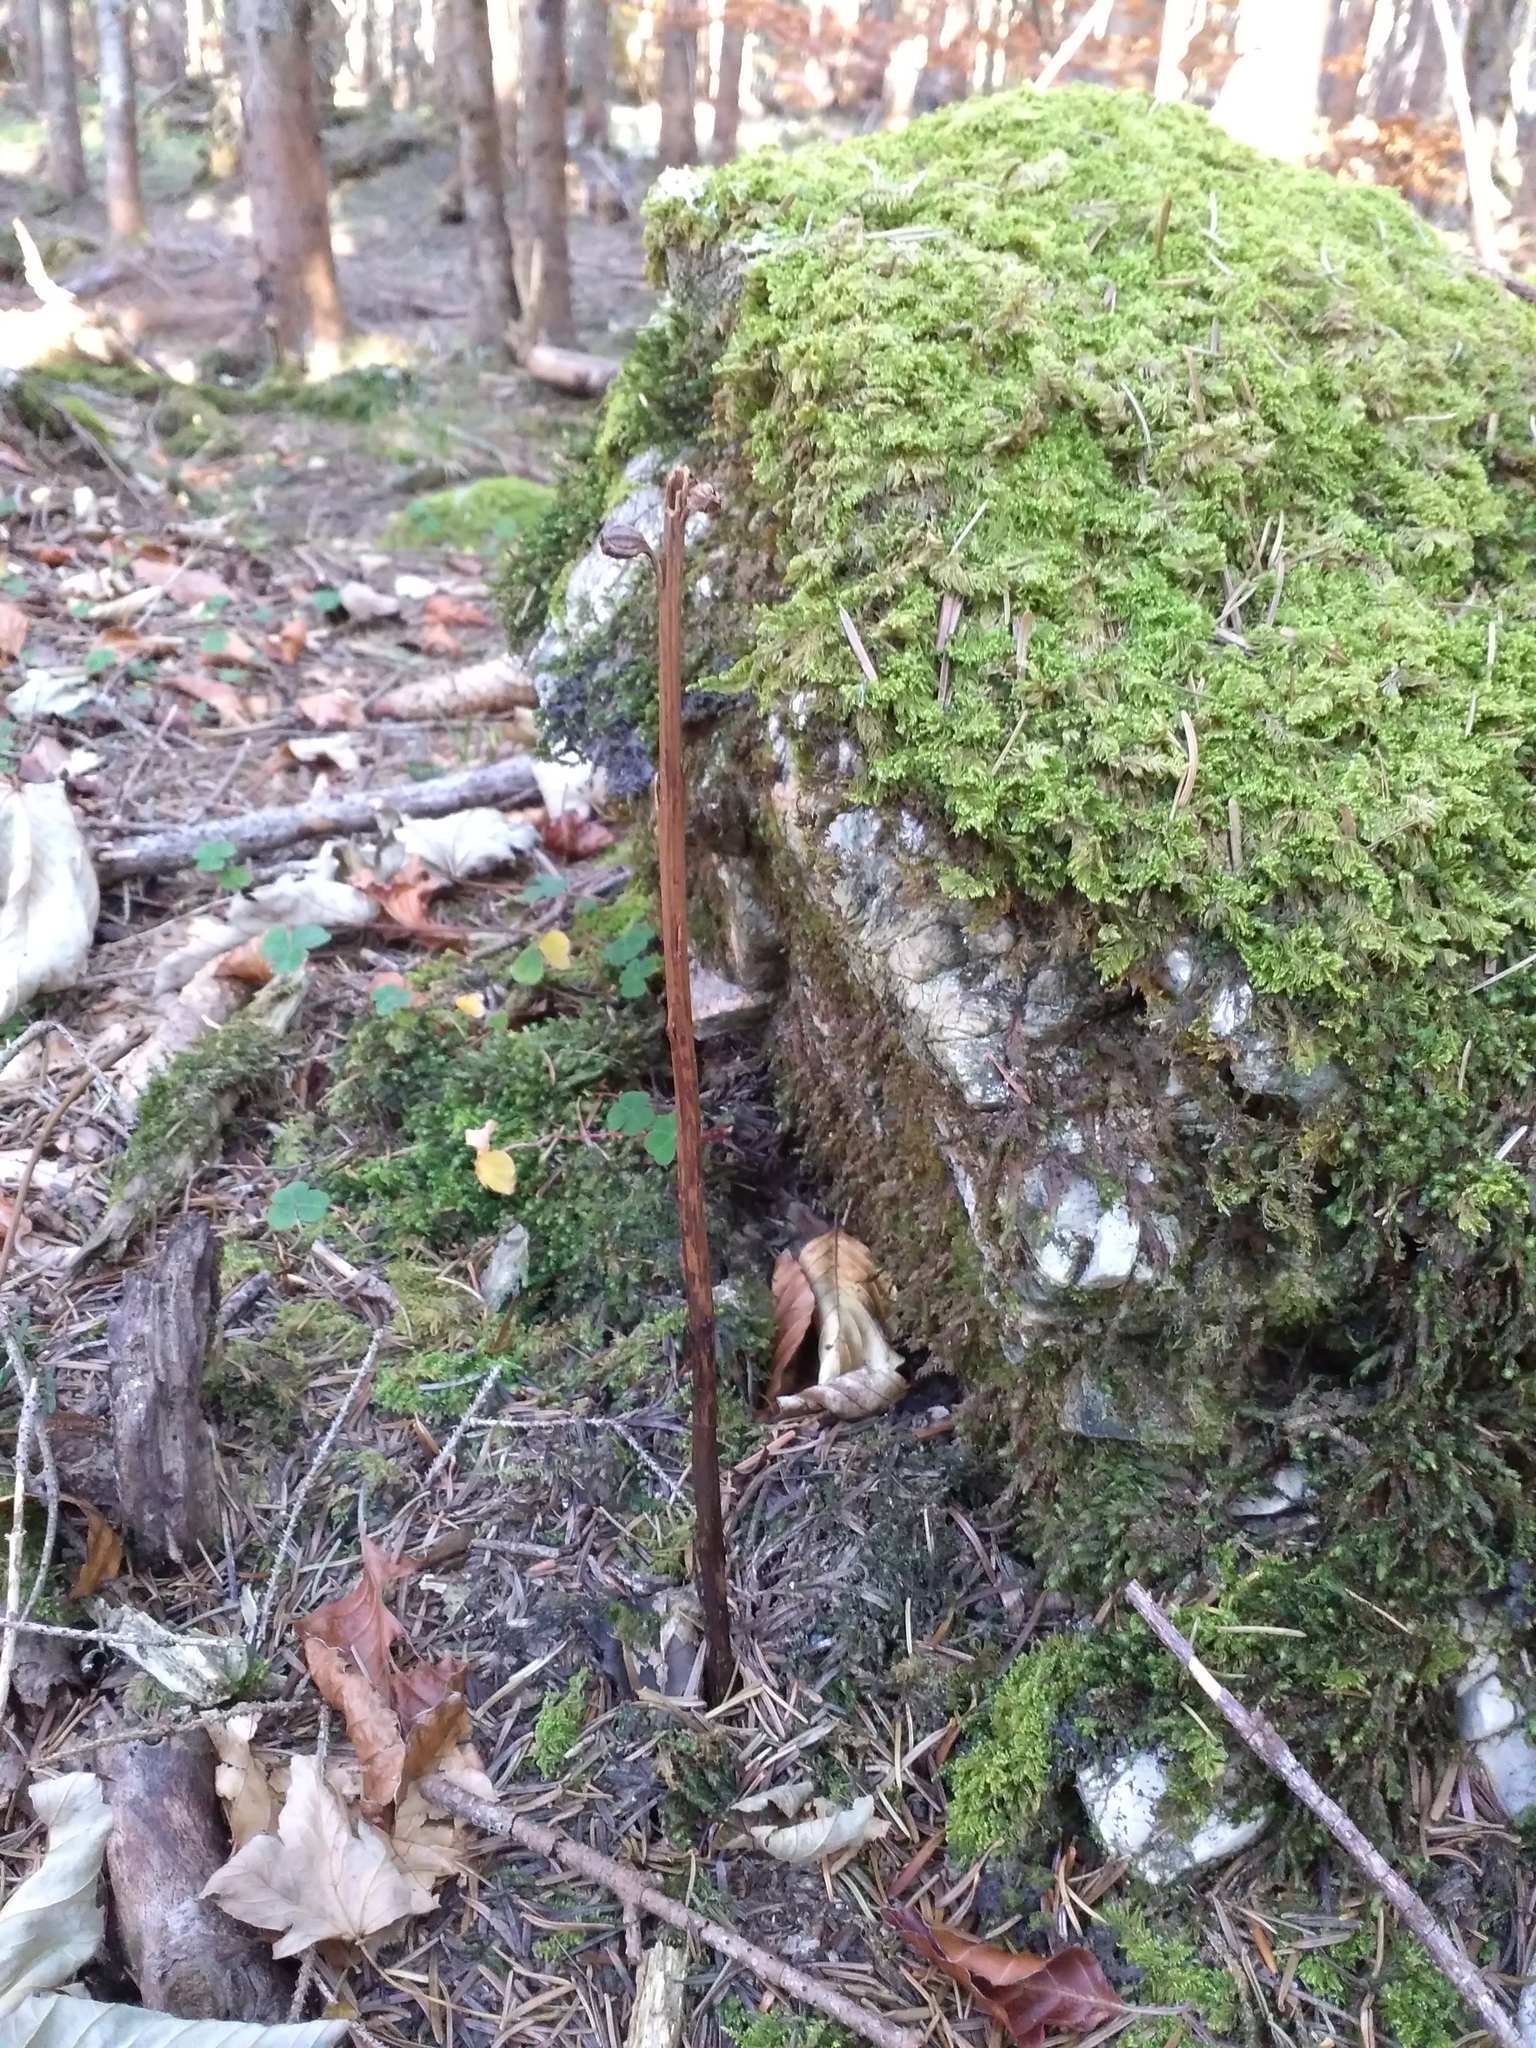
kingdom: Plantae
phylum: Tracheophyta
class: Liliopsida
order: Asparagales
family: Orchidaceae
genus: Neottia
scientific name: Neottia nidus-avis
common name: Bird's-nest orchid
